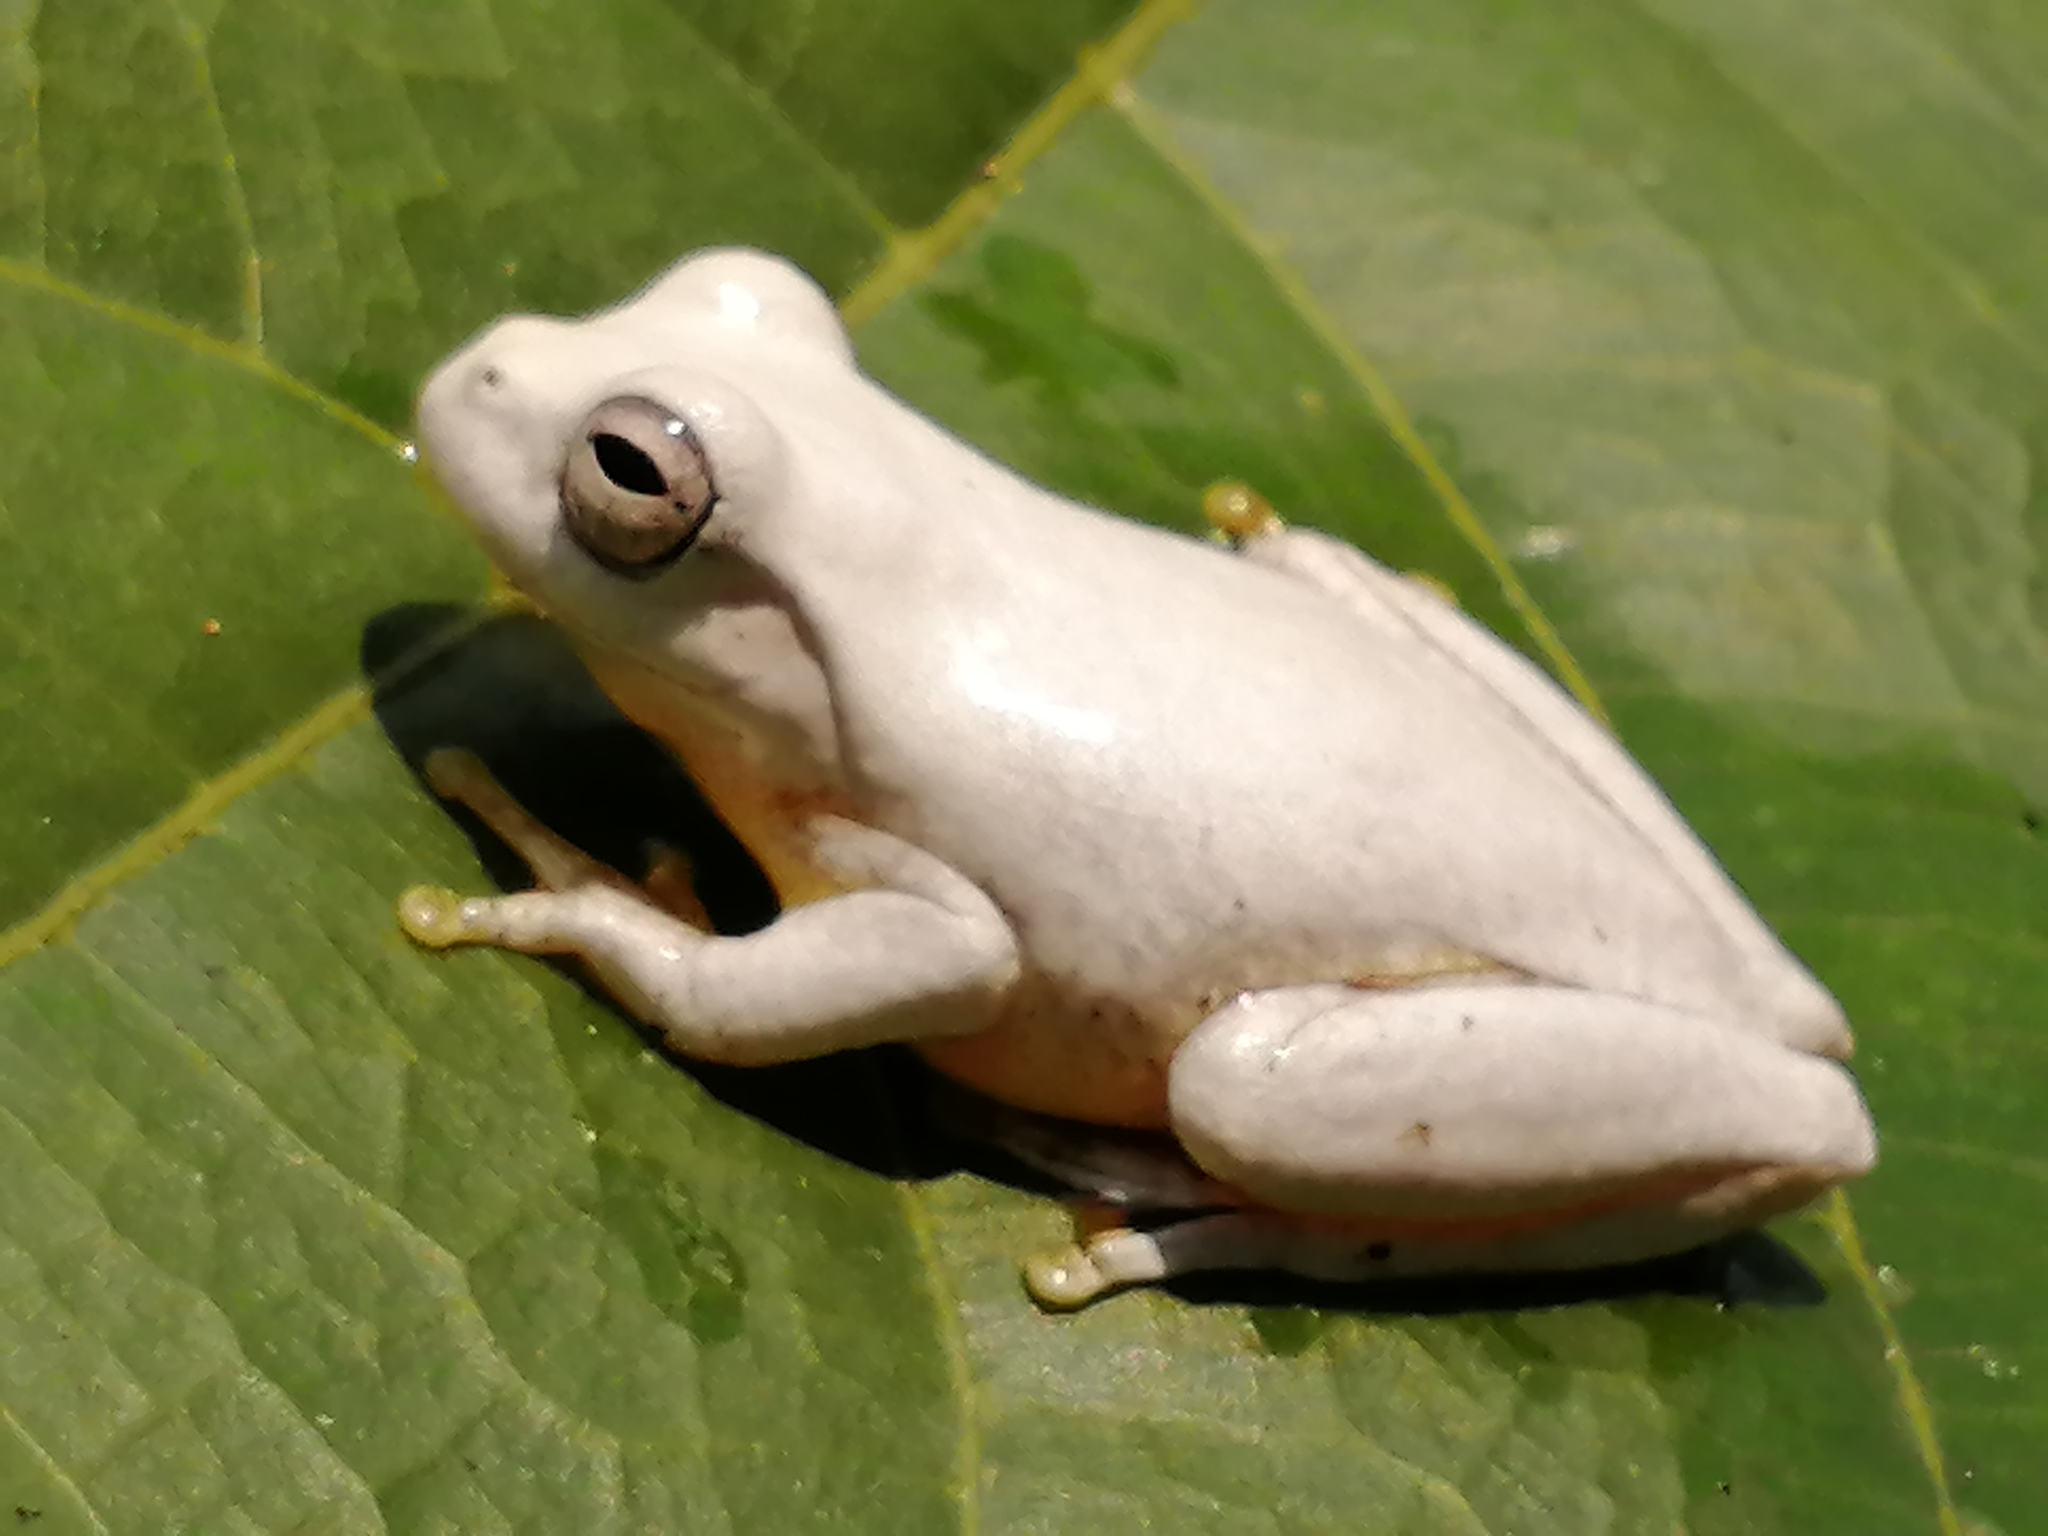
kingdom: Animalia
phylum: Chordata
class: Amphibia
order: Anura
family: Hylidae
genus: Tlalocohyla
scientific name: Tlalocohyla loquax
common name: Loquacious treefrog
